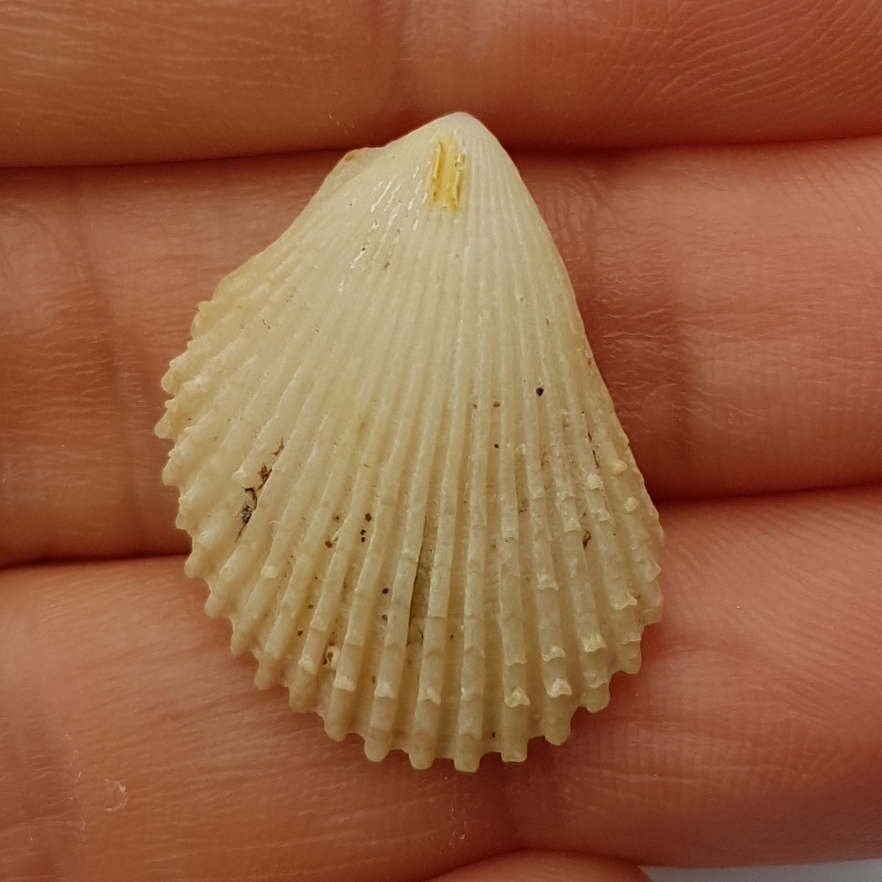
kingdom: Animalia
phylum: Mollusca
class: Bivalvia
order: Limida
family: Limidae
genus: Lima
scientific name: Lima lima
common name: Frilled file shell
